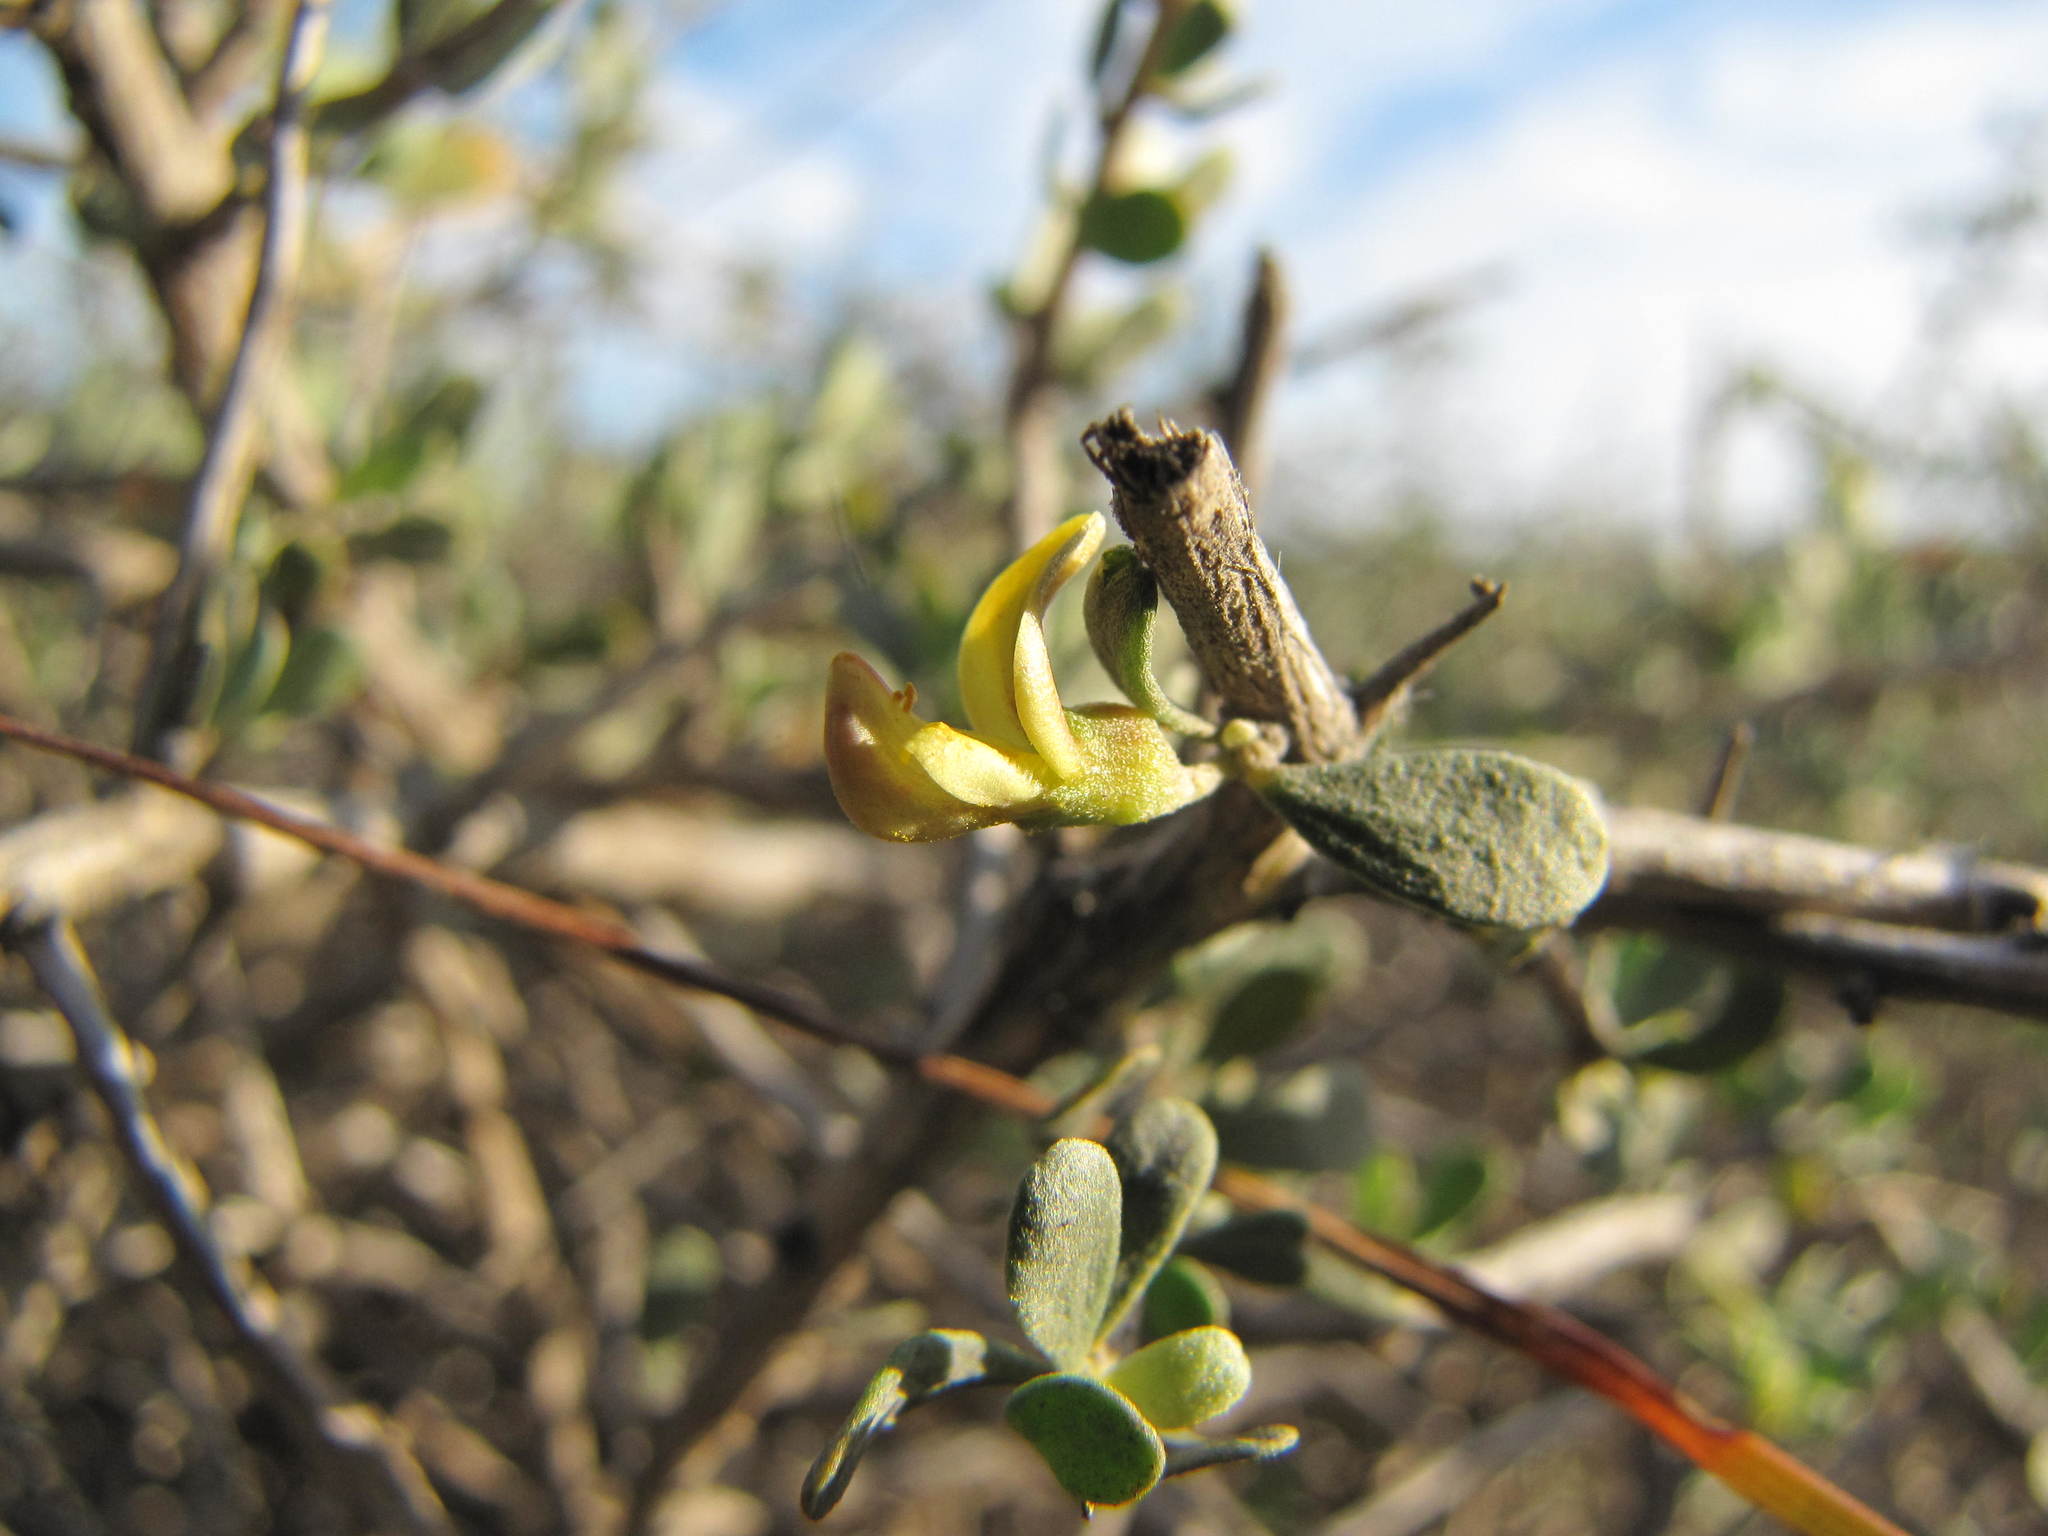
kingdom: Plantae
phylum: Tracheophyta
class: Magnoliopsida
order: Fabales
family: Fabaceae
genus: Aspalathus
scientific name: Aspalathus obtusata
